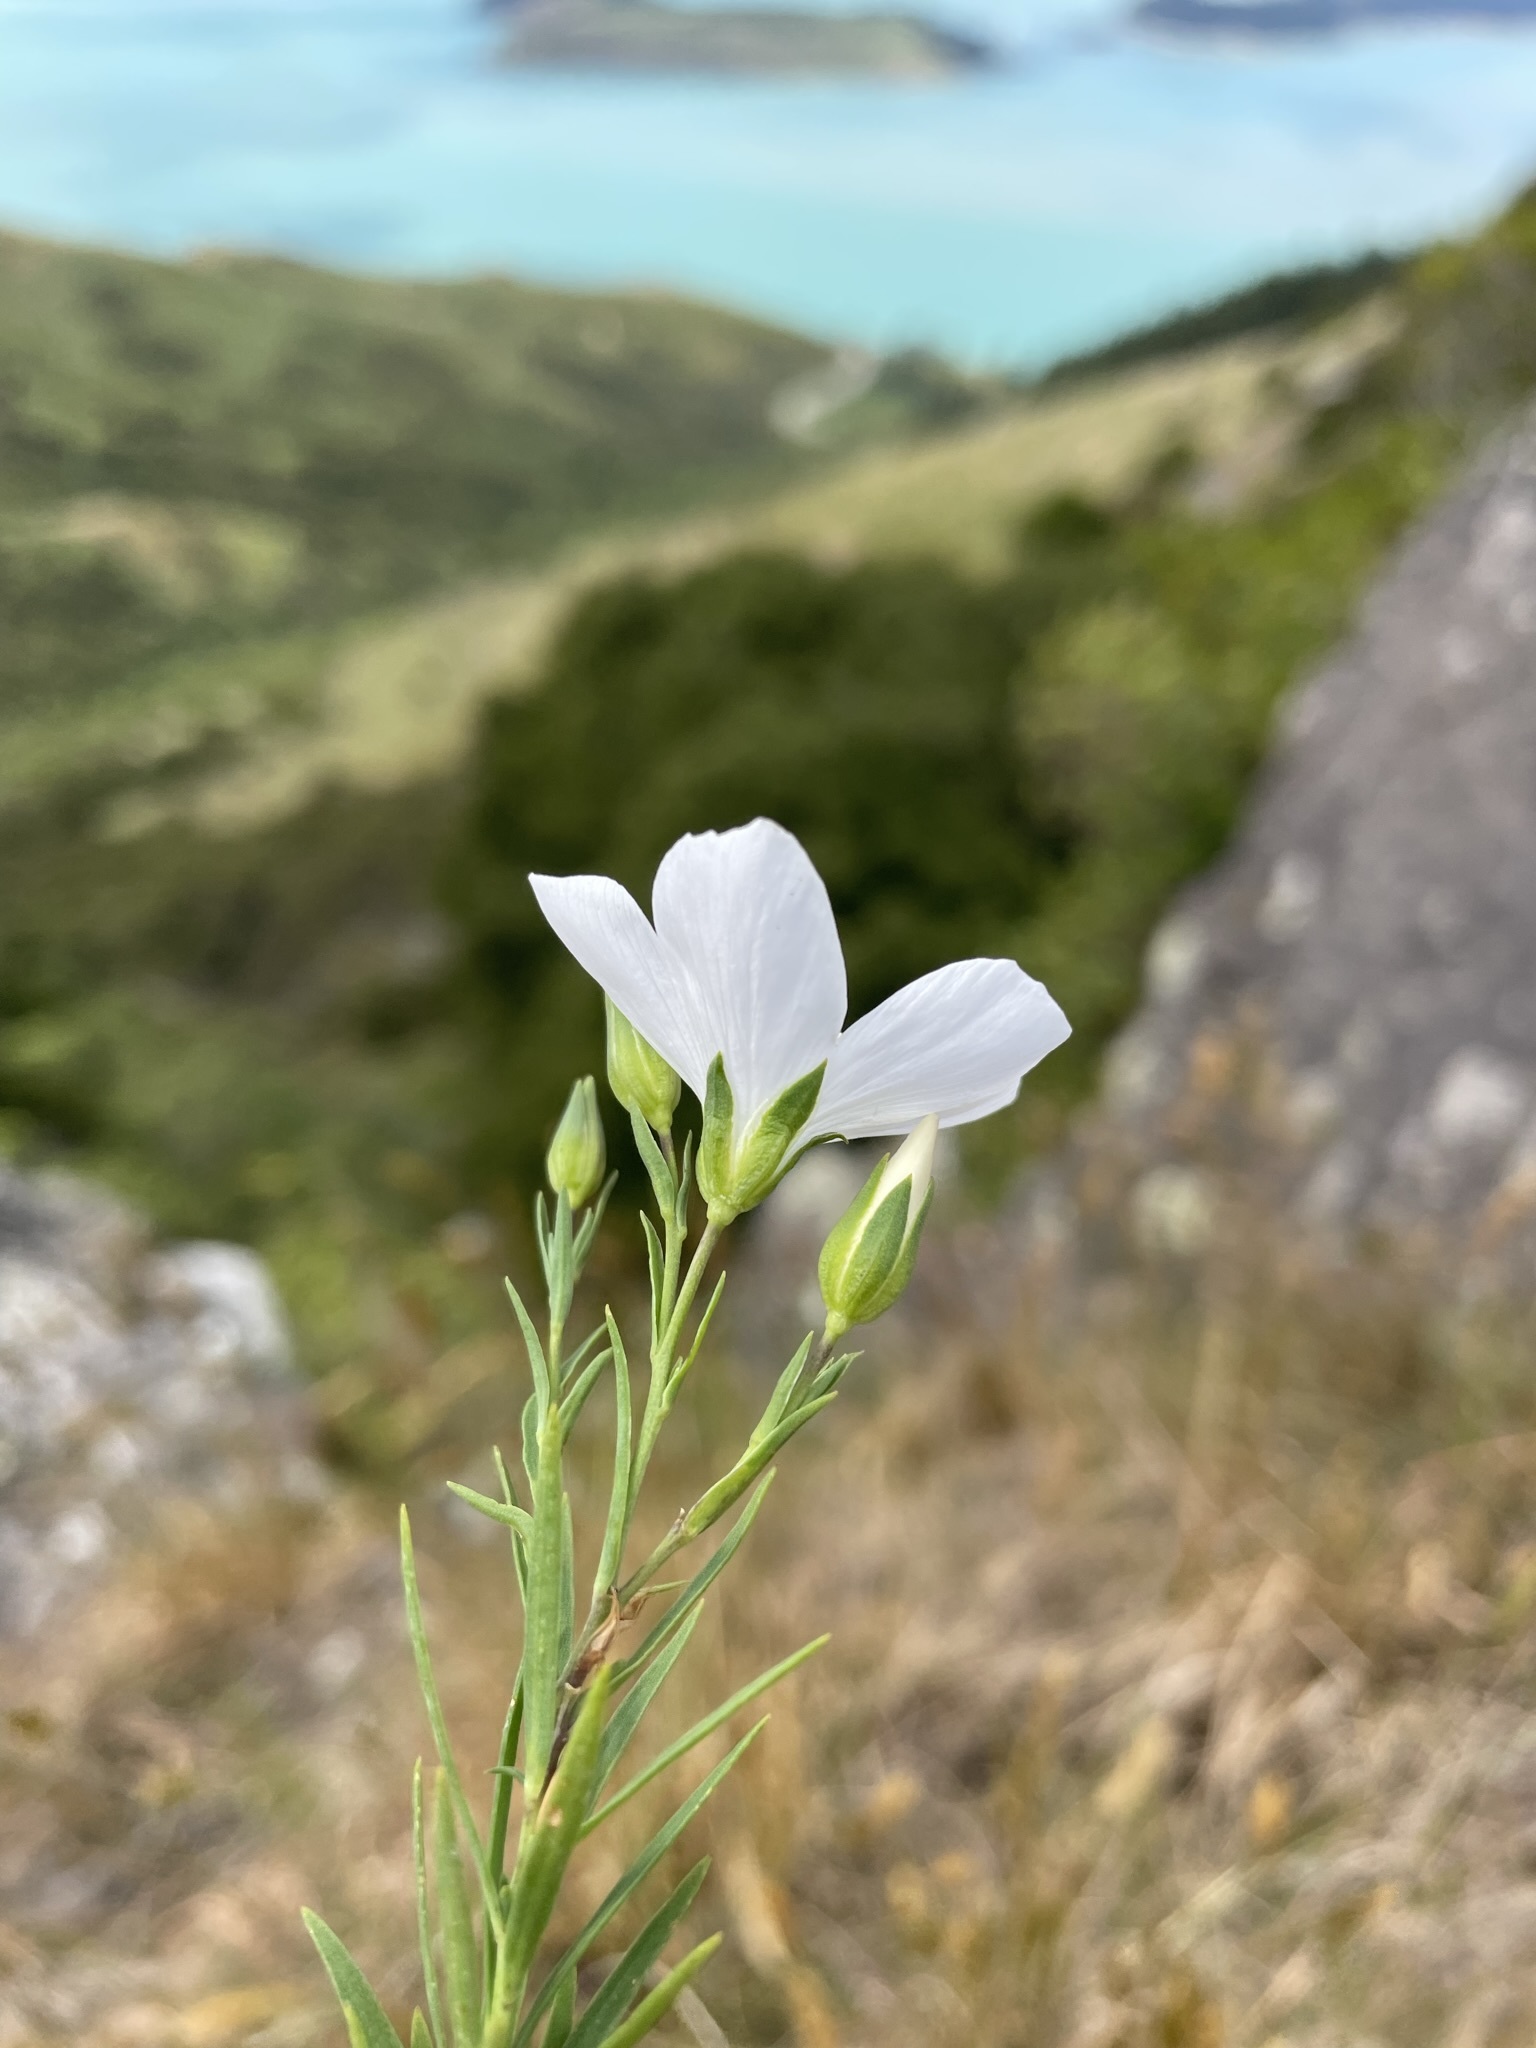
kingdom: Plantae
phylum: Tracheophyta
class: Magnoliopsida
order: Malpighiales
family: Linaceae
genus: Linum
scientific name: Linum monogynum
